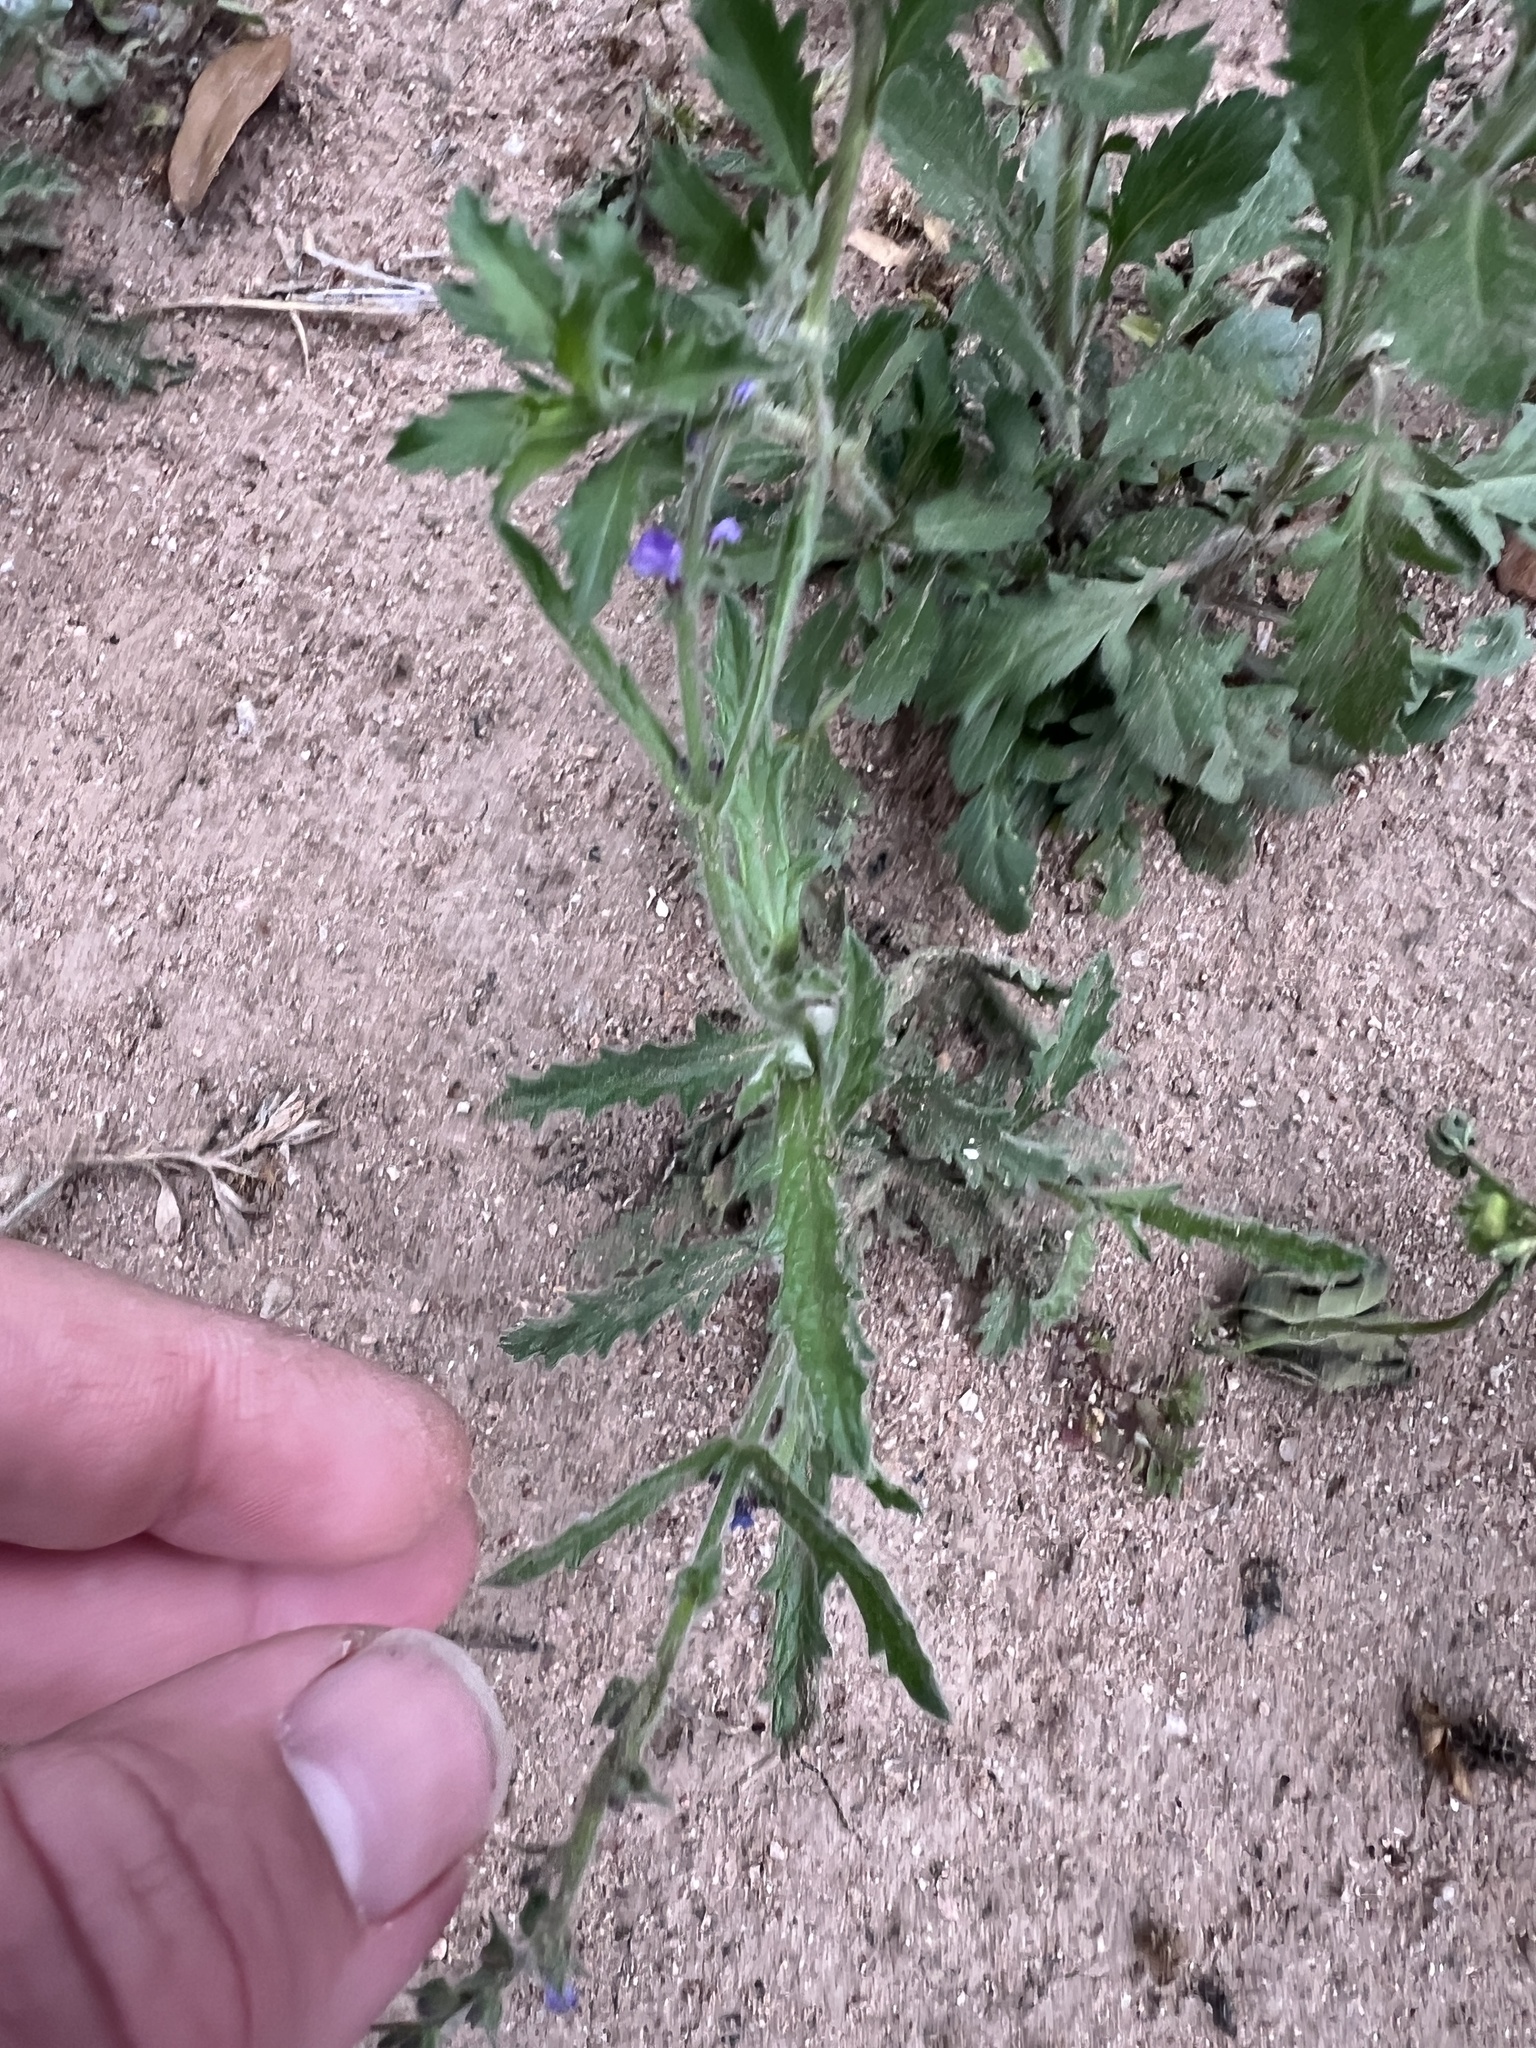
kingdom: Plantae
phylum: Tracheophyta
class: Magnoliopsida
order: Lamiales
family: Verbenaceae
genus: Verbena
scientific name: Verbena canescens
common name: Gray vervain
